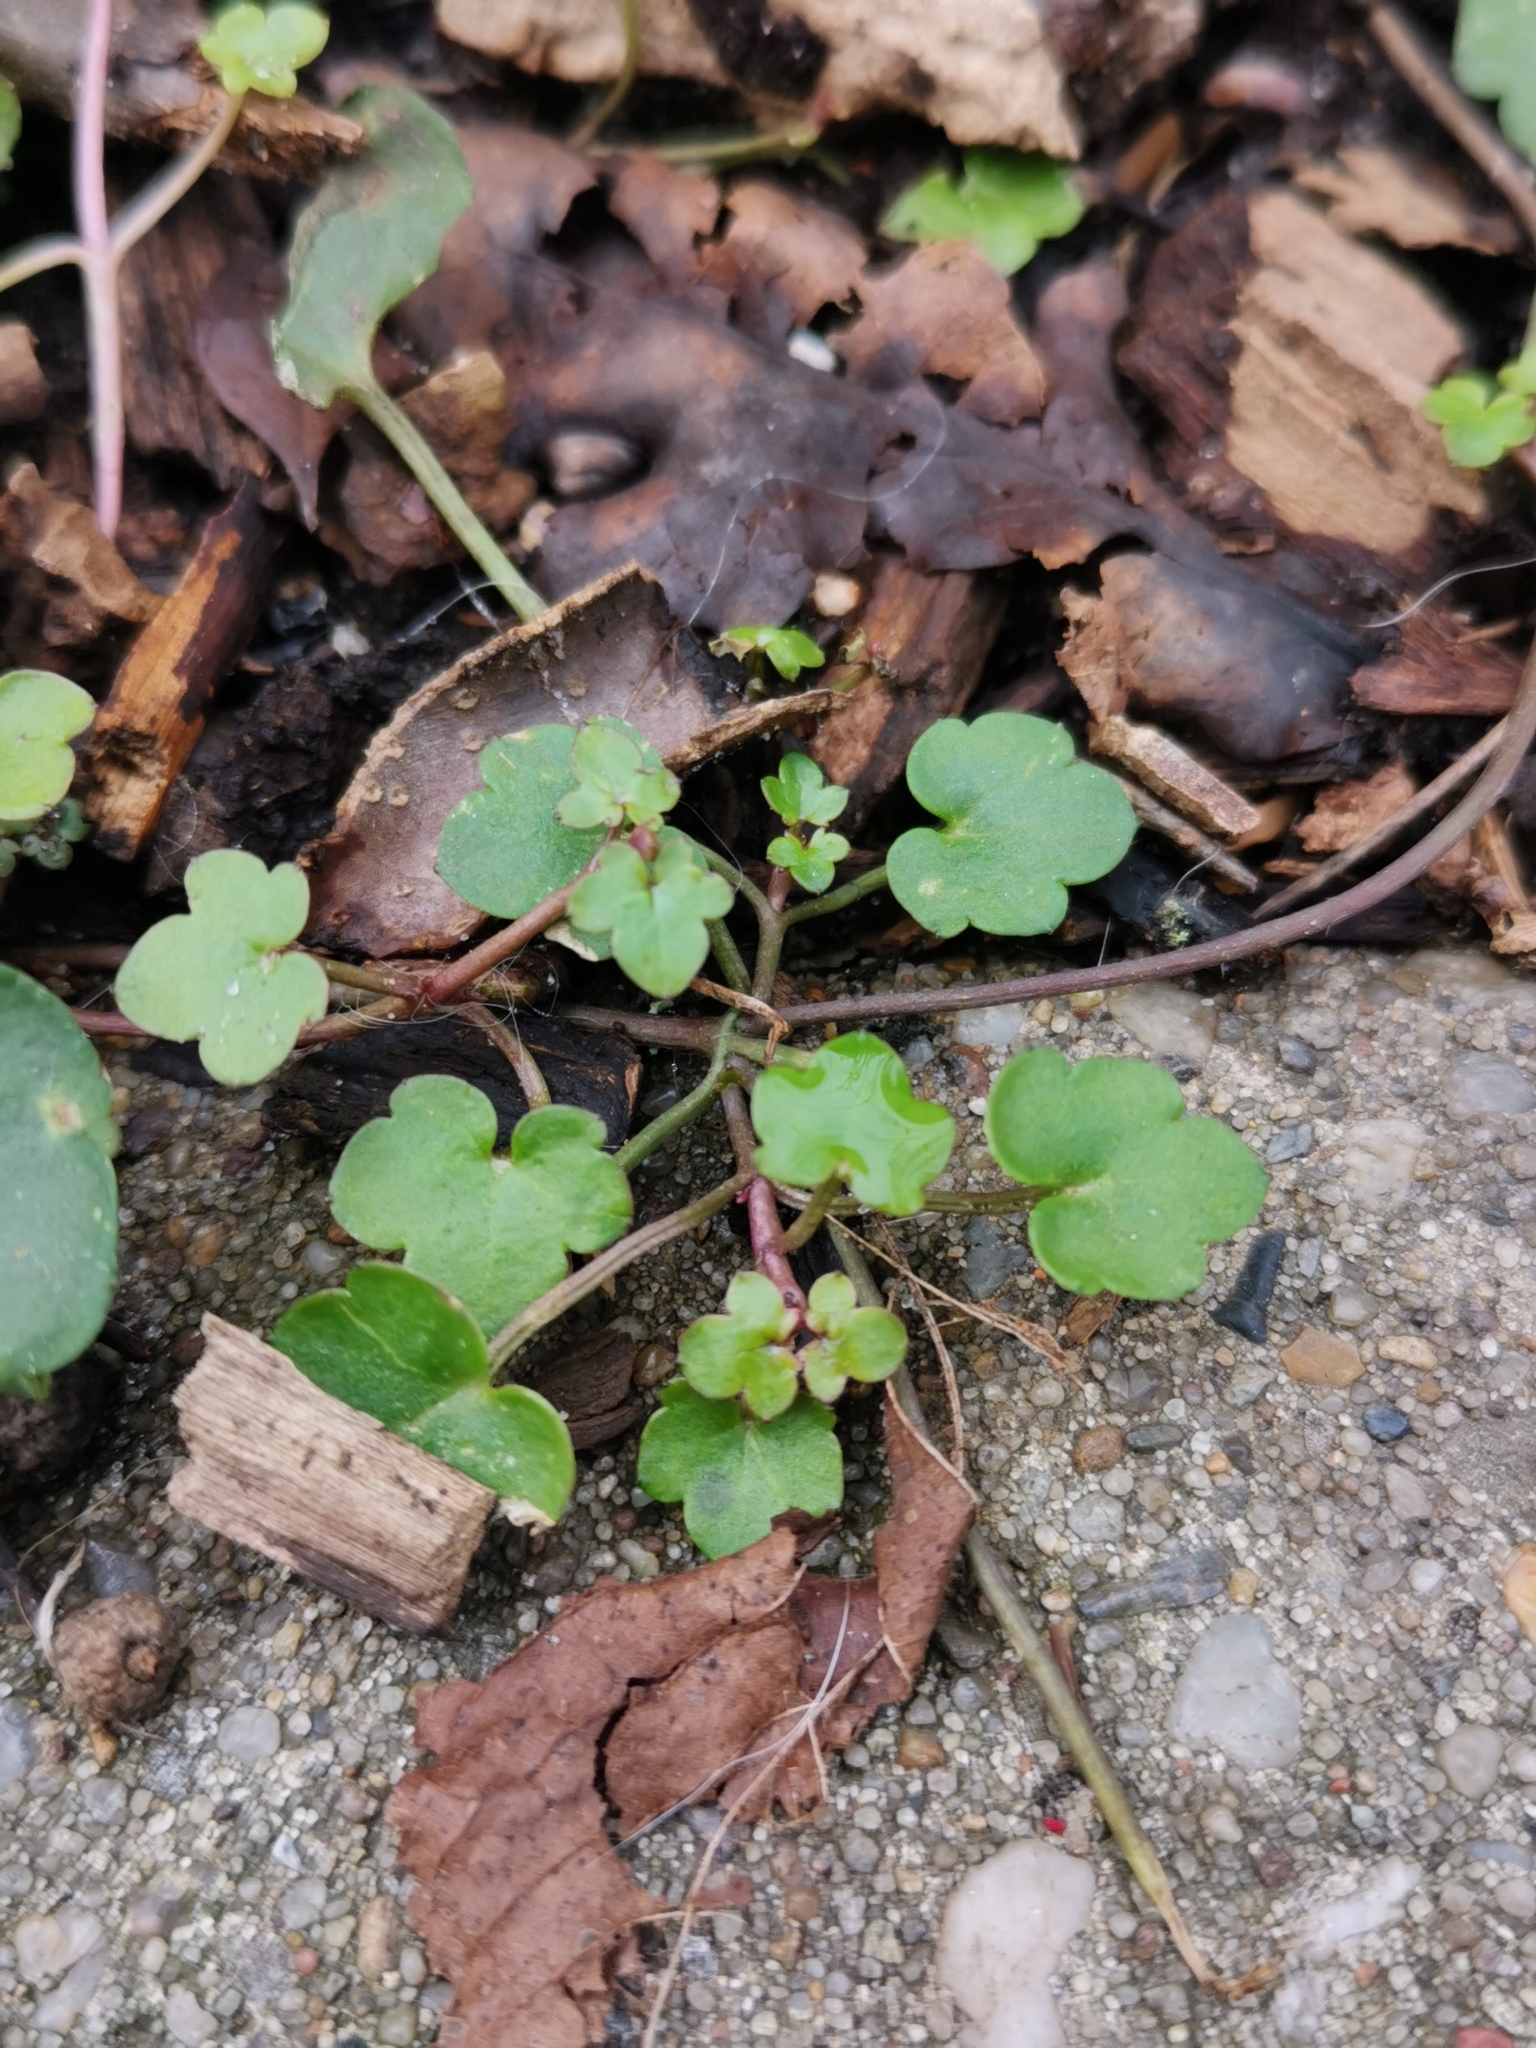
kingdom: Plantae
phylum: Tracheophyta
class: Magnoliopsida
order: Lamiales
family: Plantaginaceae
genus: Cymbalaria
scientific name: Cymbalaria muralis
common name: Ivy-leaved toadflax
